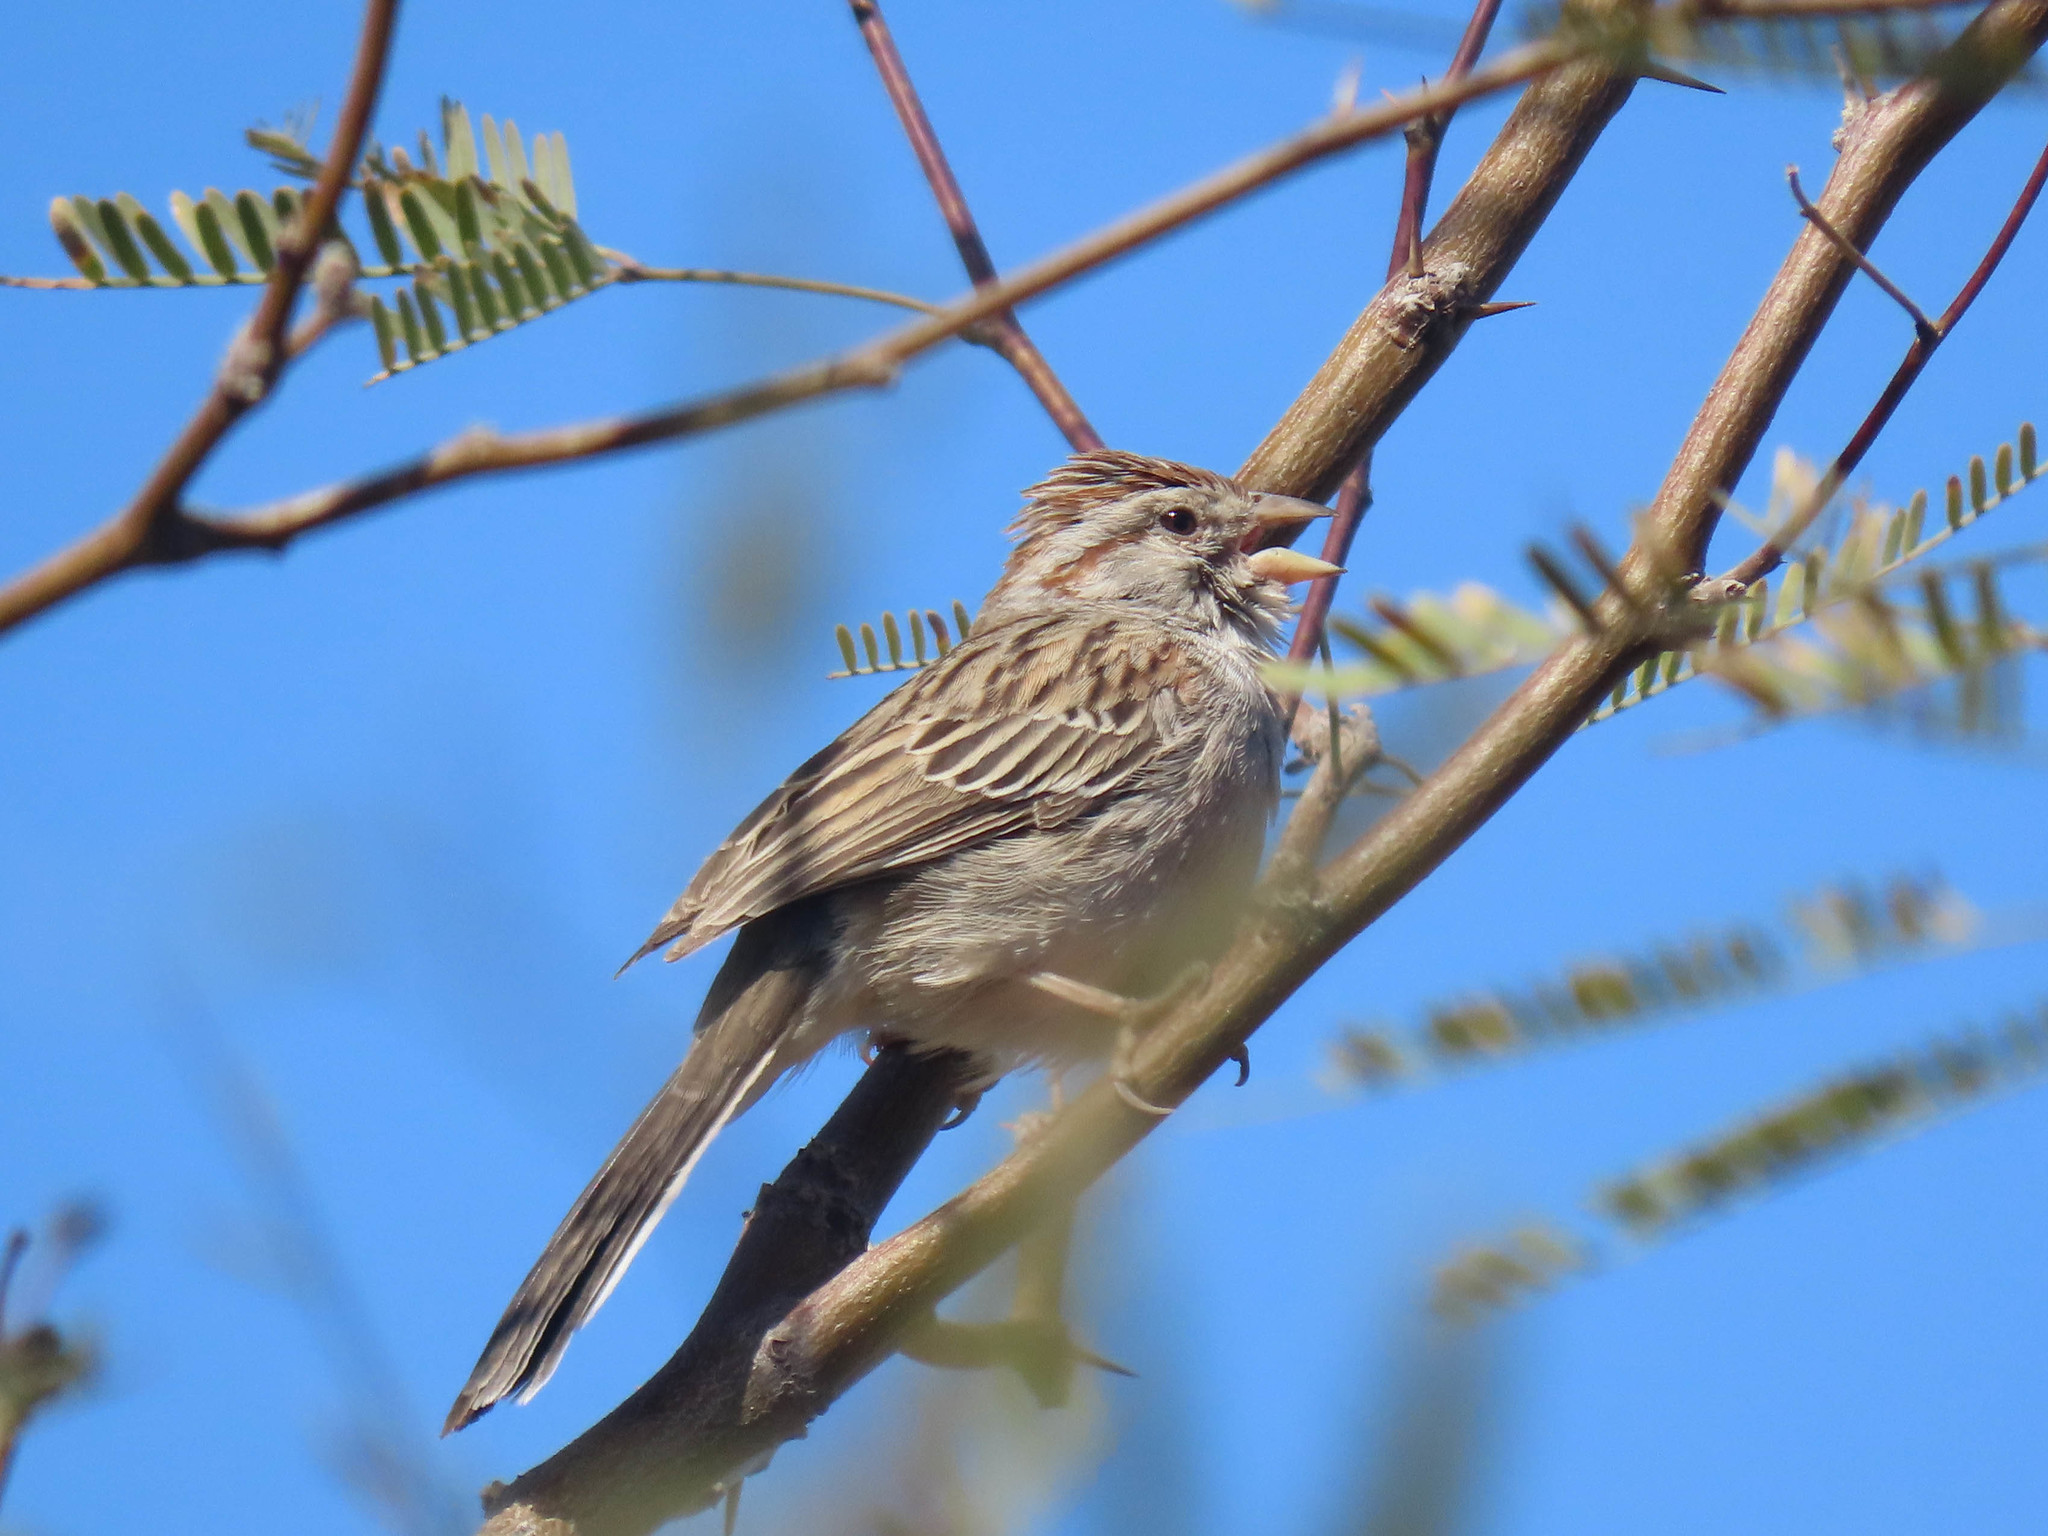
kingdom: Animalia
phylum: Chordata
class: Aves
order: Passeriformes
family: Passerellidae
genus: Peucaea
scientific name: Peucaea carpalis
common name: Rufous-winged sparrow
